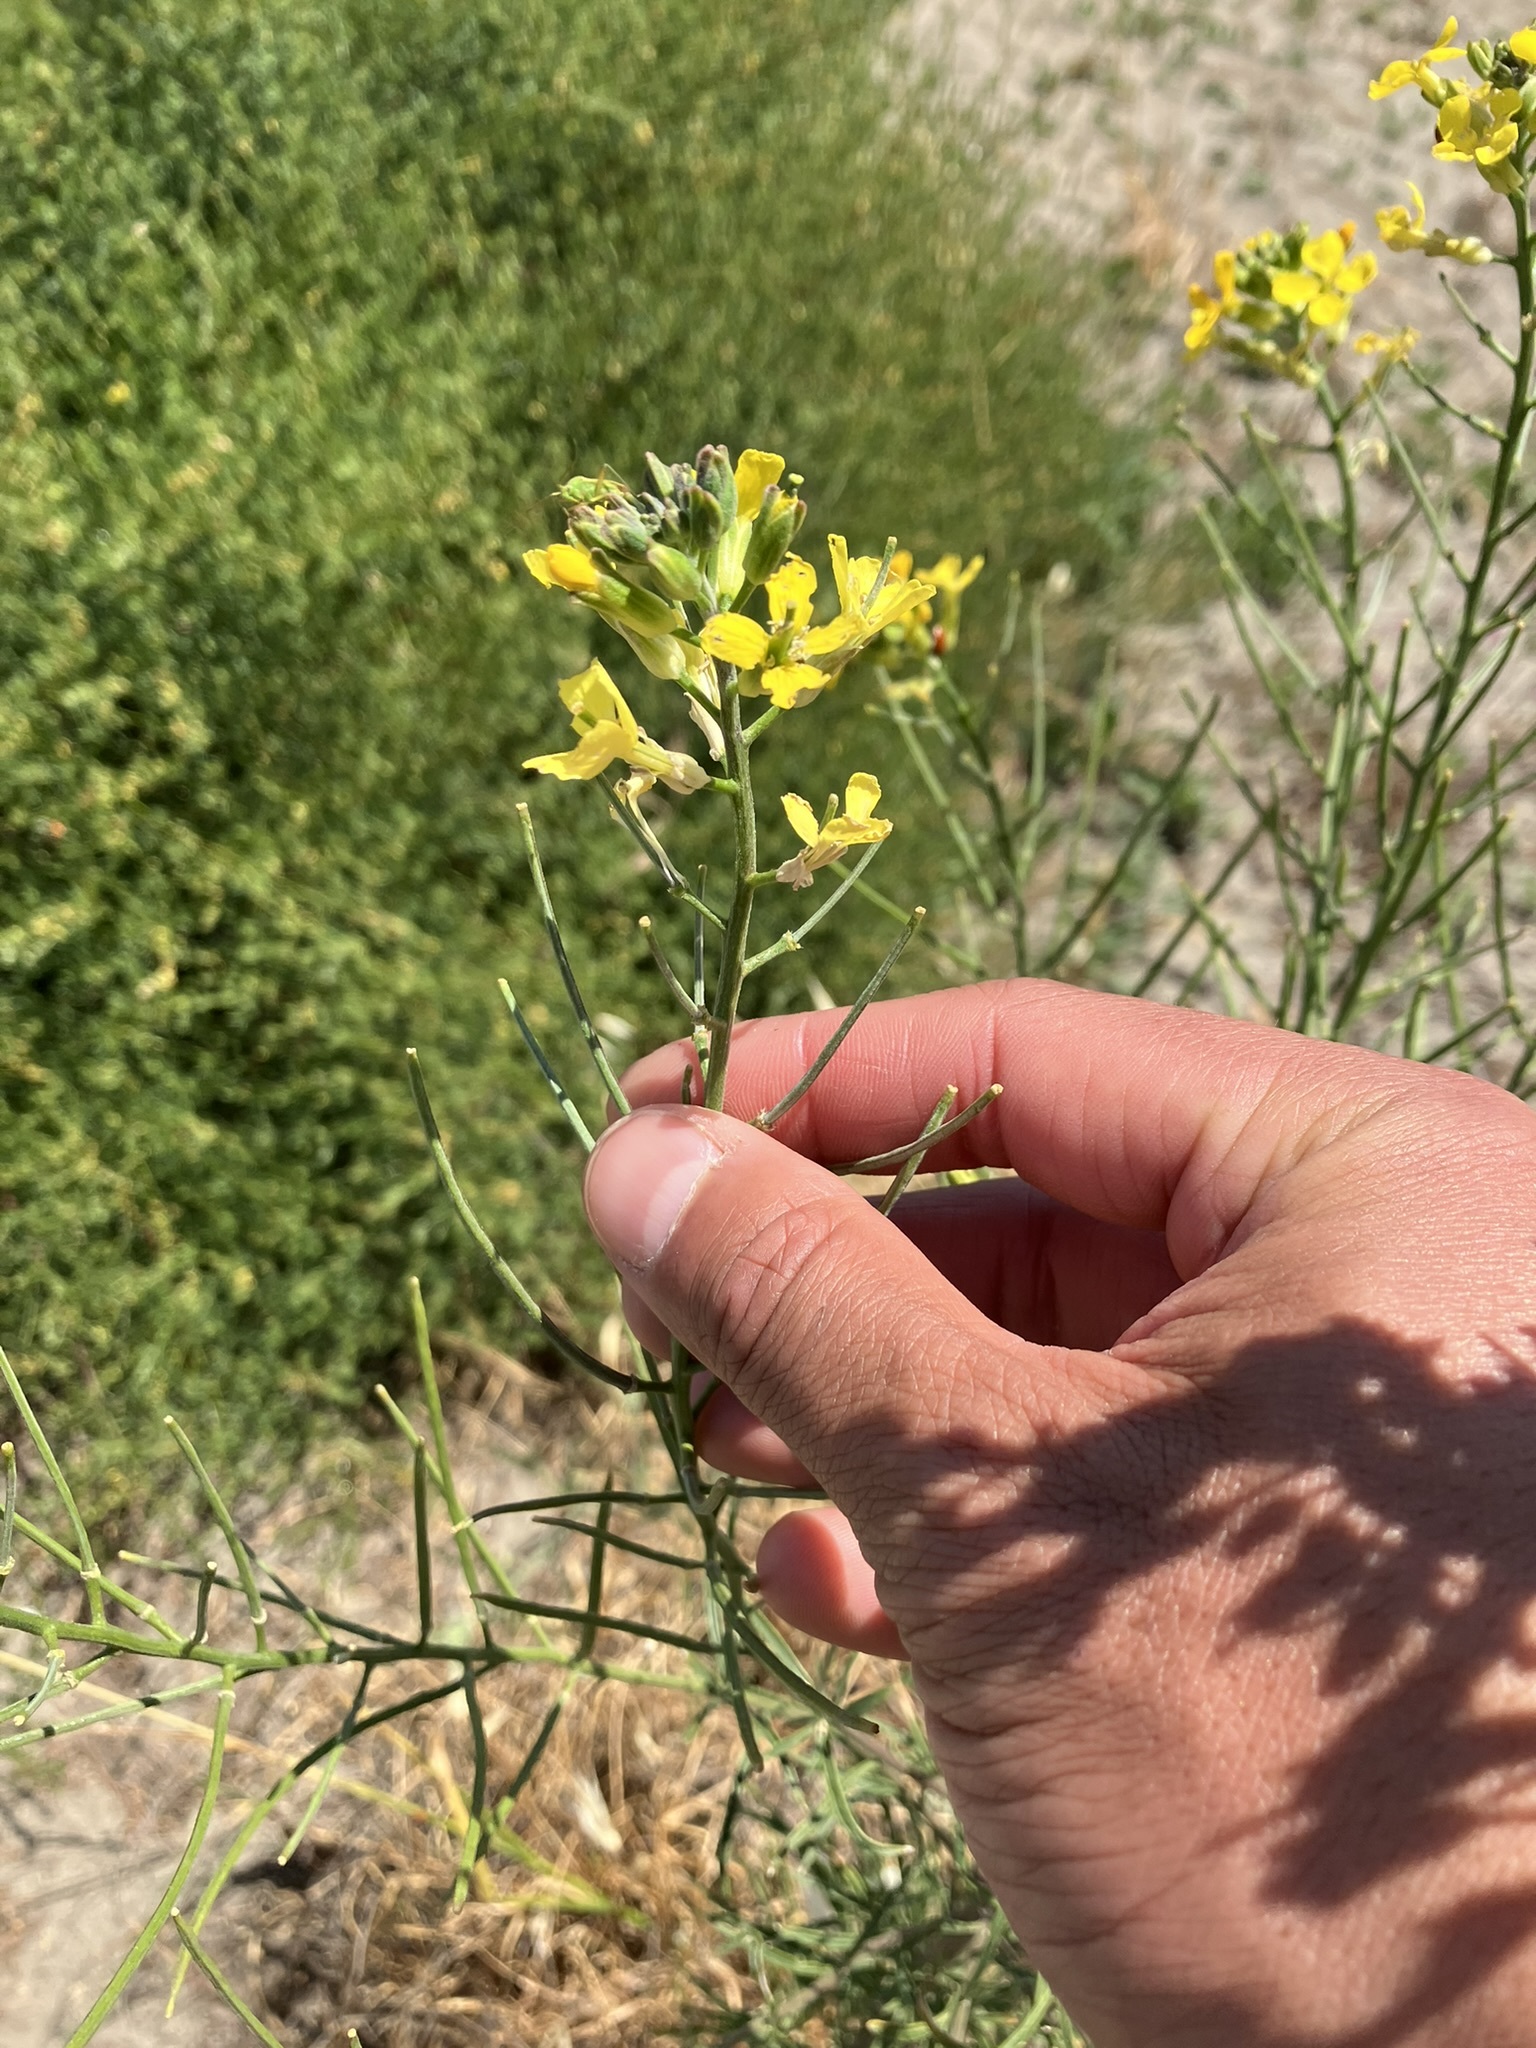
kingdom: Plantae
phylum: Tracheophyta
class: Magnoliopsida
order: Brassicales
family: Brassicaceae
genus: Erysimum
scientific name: Erysimum capitatum
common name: Western wallflower
